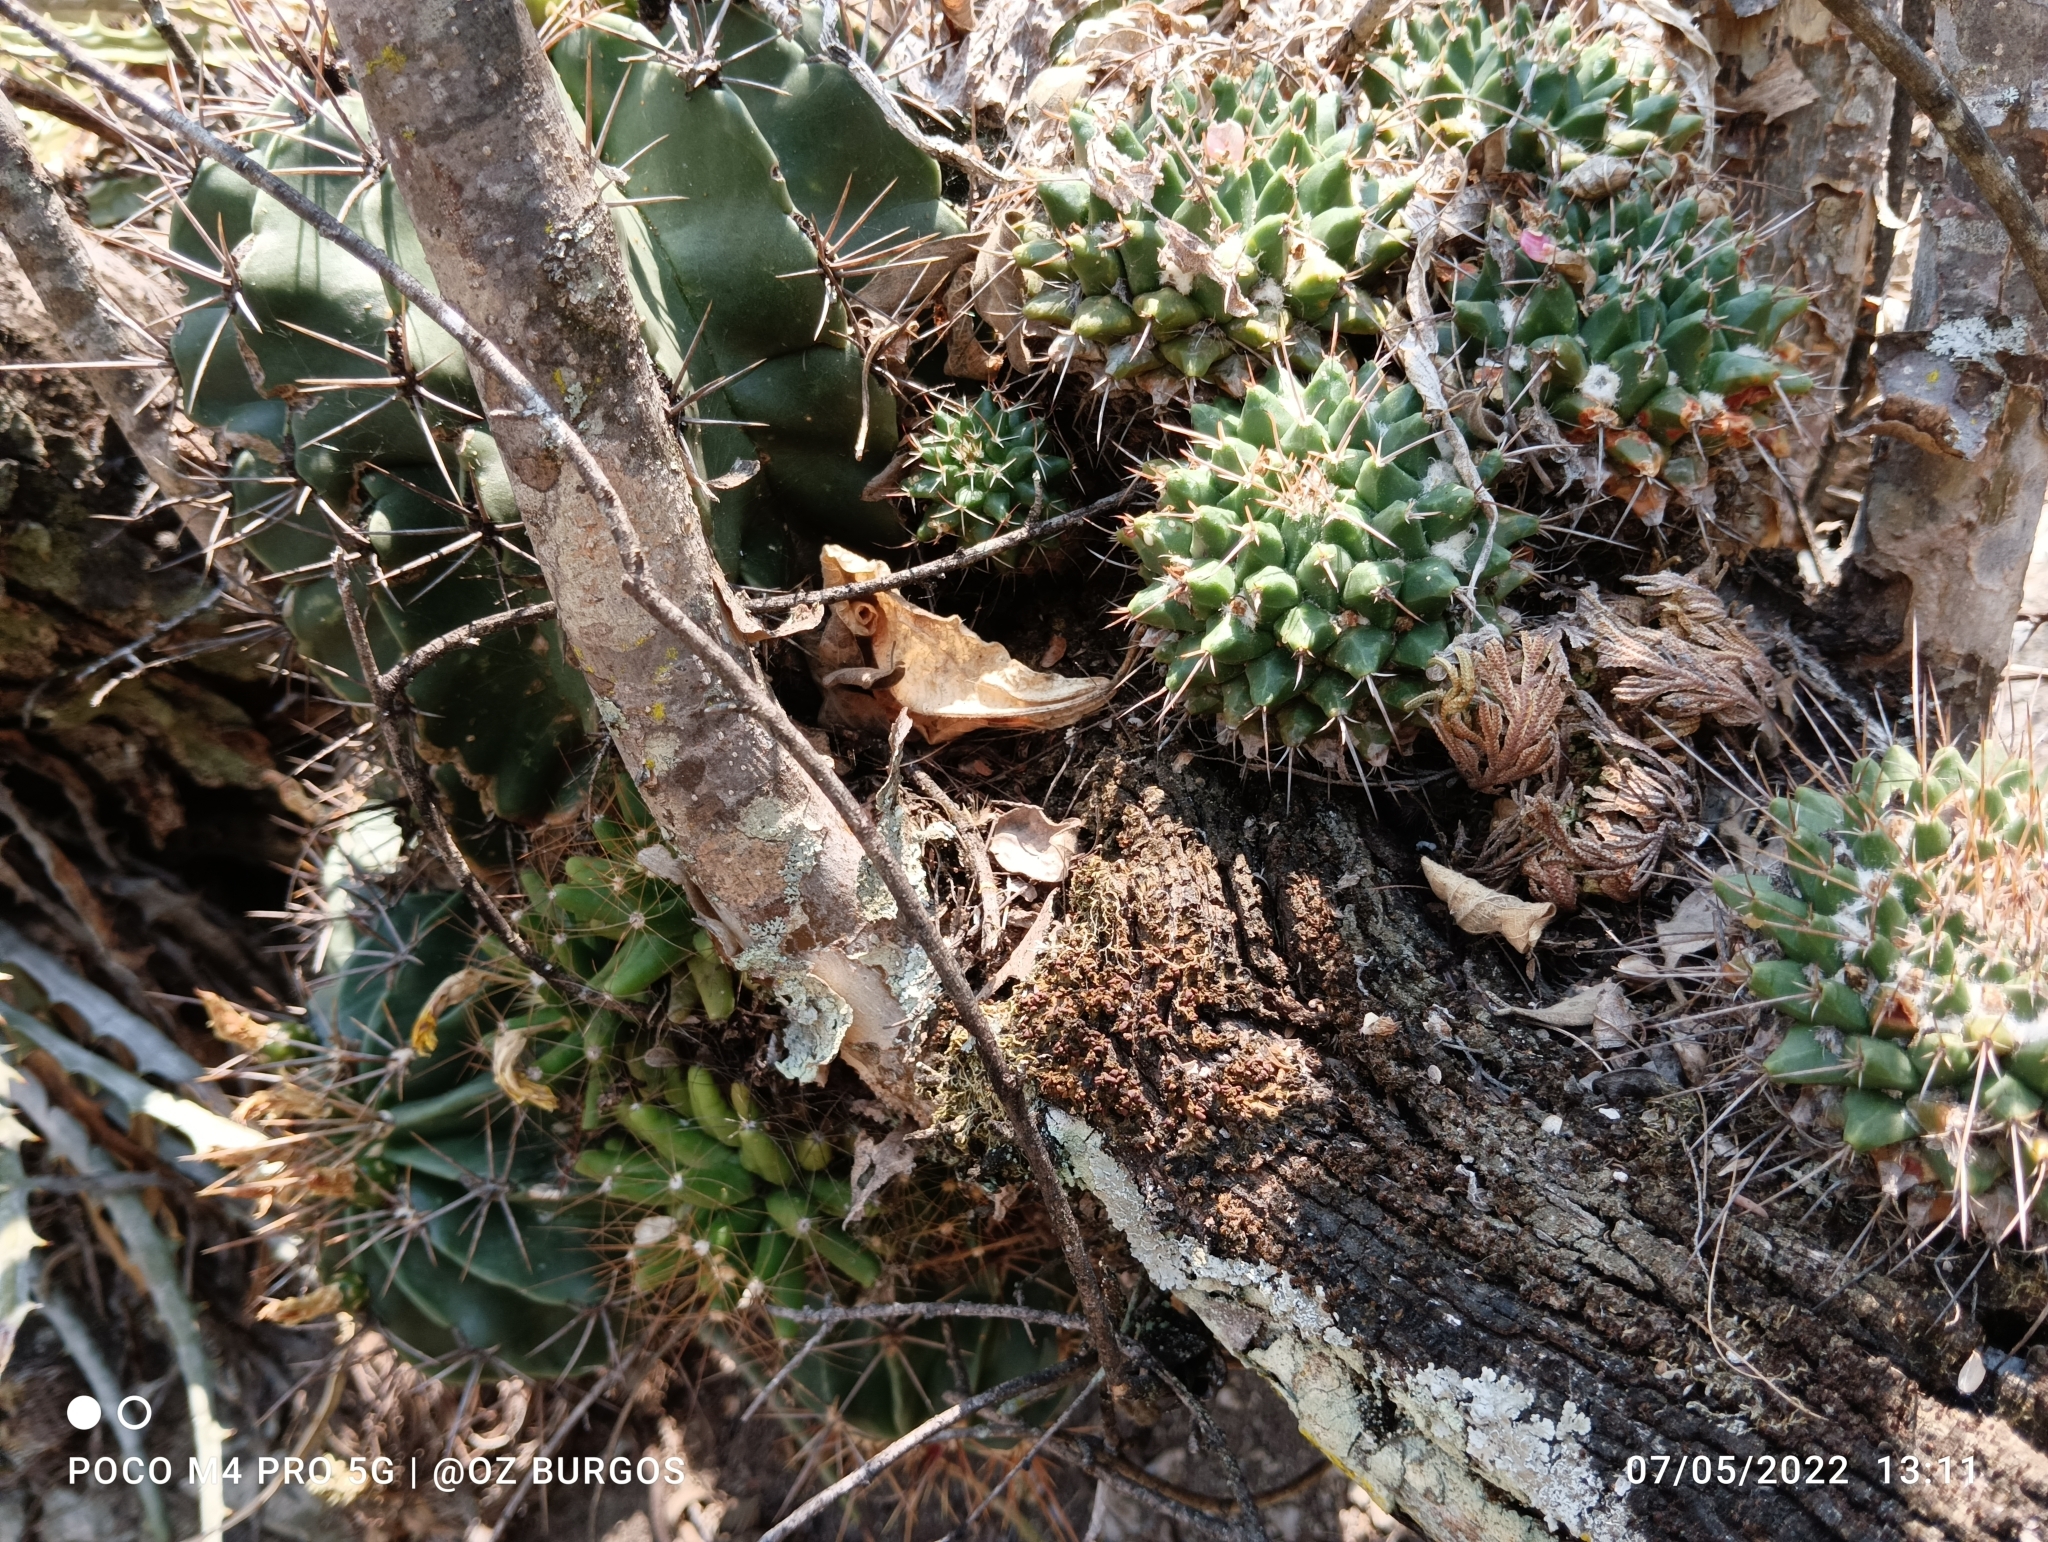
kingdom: Plantae
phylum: Tracheophyta
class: Magnoliopsida
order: Caryophyllales
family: Cactaceae
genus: Mammillaria
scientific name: Mammillaria compressa
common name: Mother-of-hundreds
